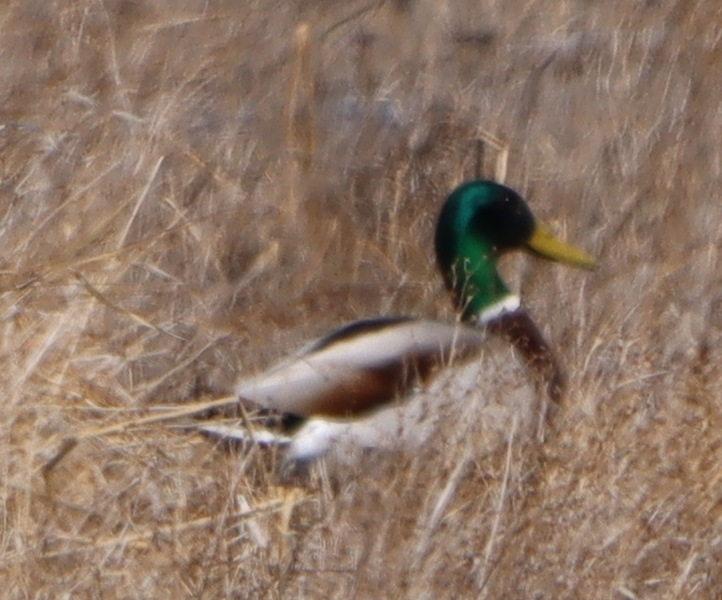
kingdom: Animalia
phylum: Chordata
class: Aves
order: Anseriformes
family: Anatidae
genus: Anas
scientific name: Anas platyrhynchos
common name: Mallard
